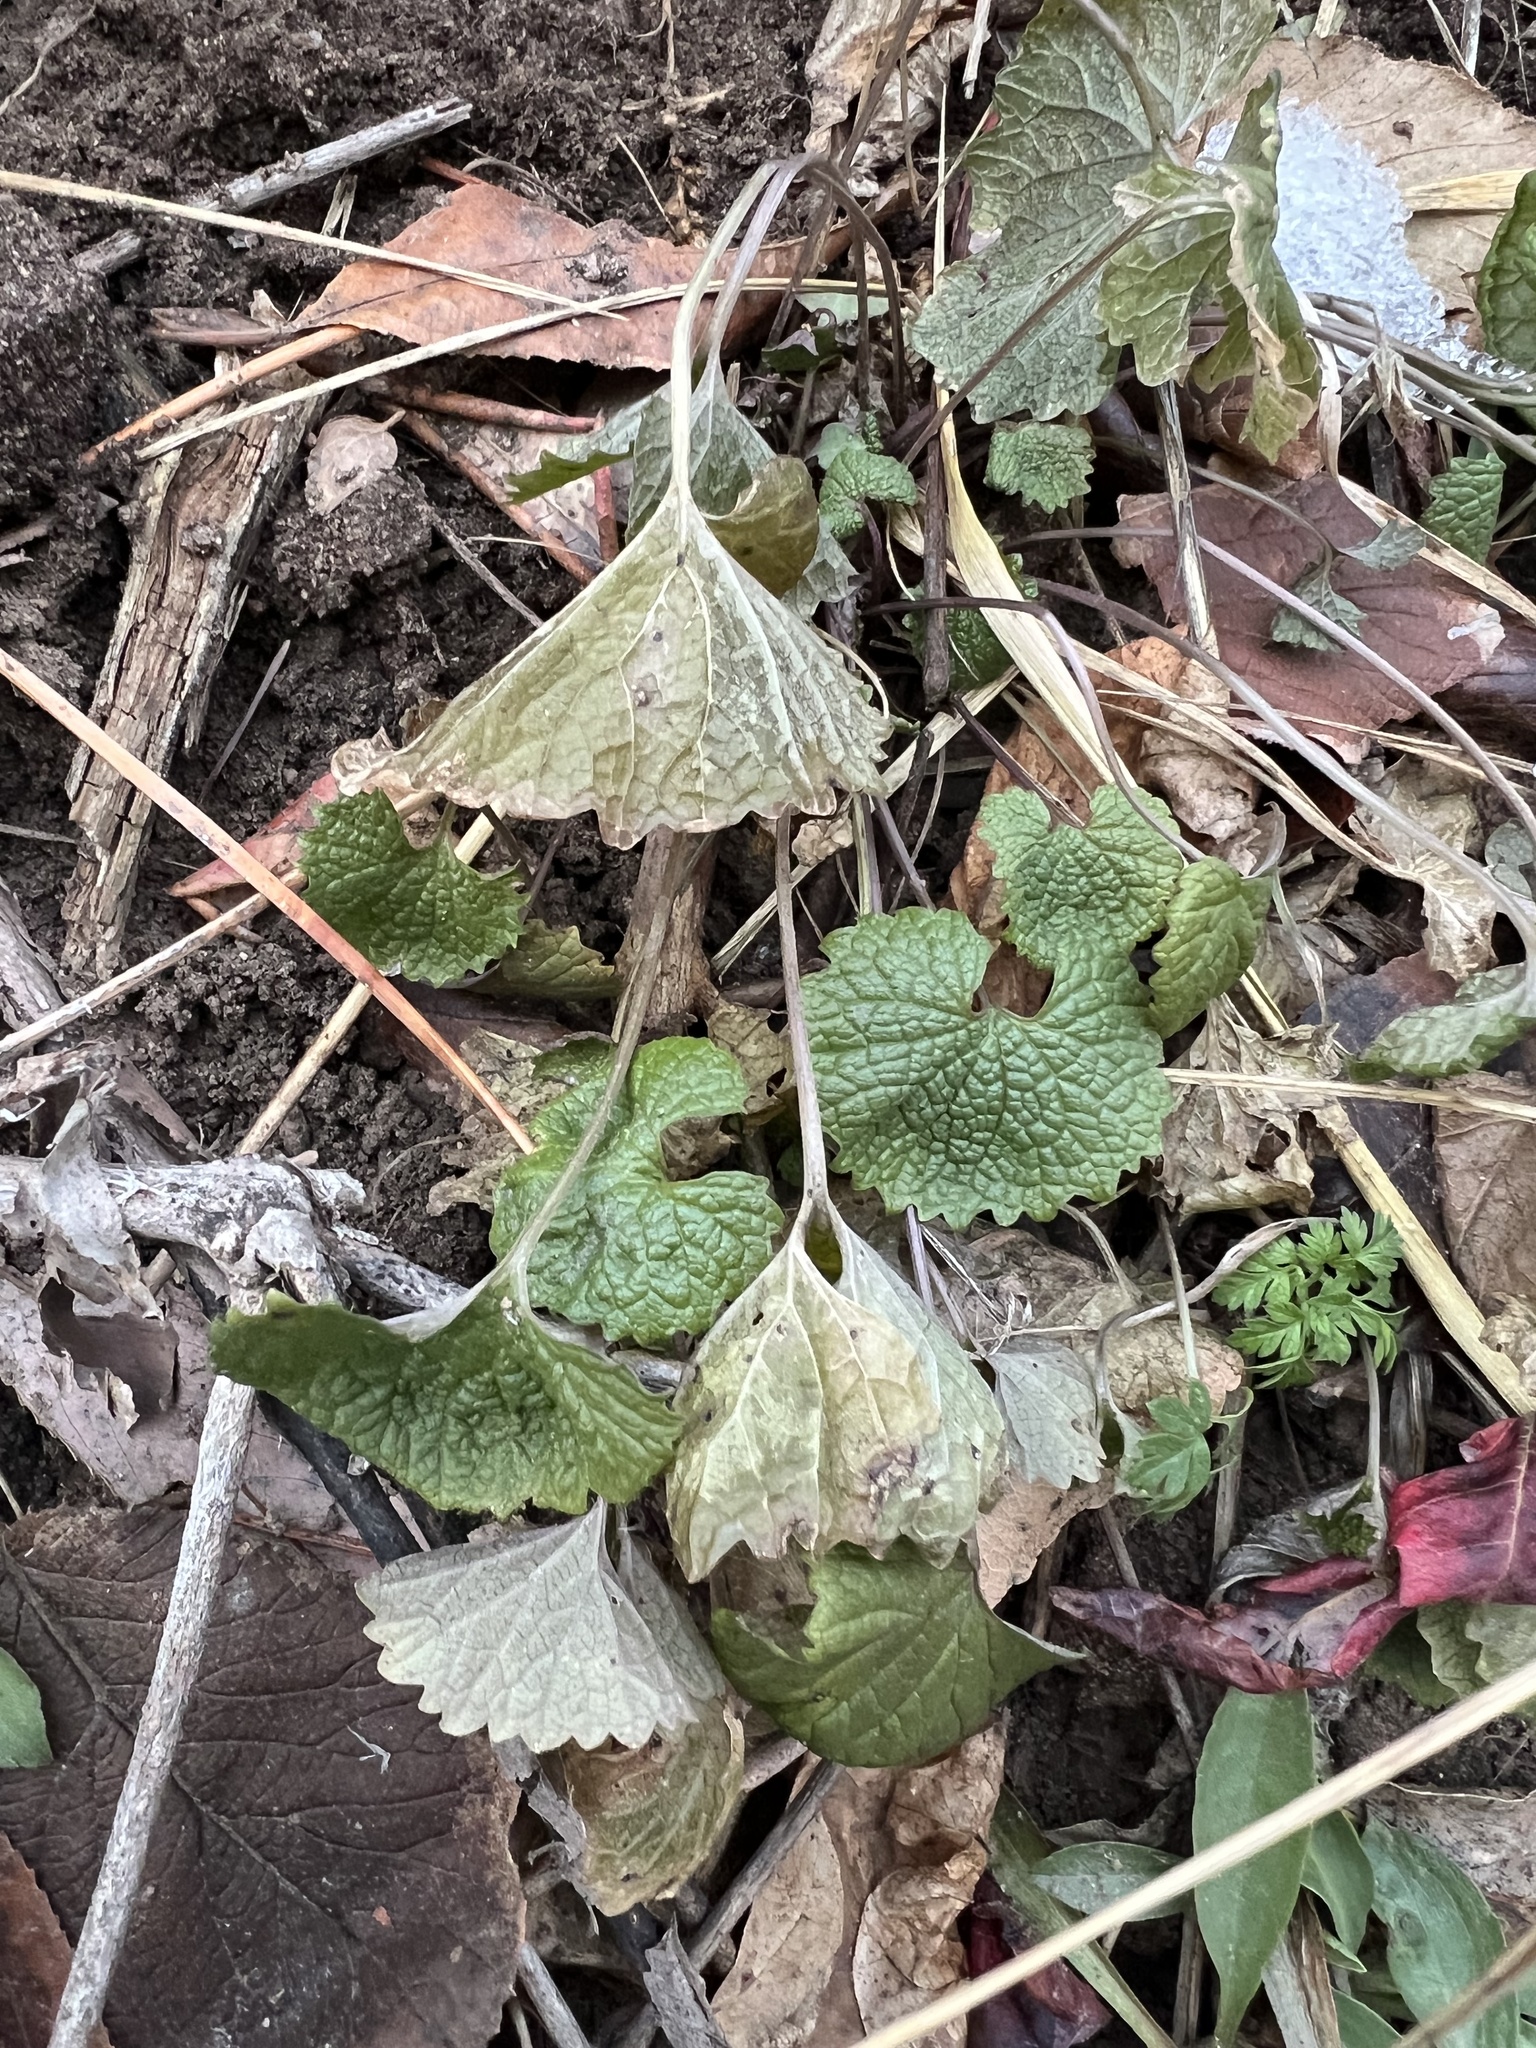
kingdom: Plantae
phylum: Tracheophyta
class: Magnoliopsida
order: Brassicales
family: Brassicaceae
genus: Alliaria
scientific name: Alliaria petiolata
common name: Garlic mustard
